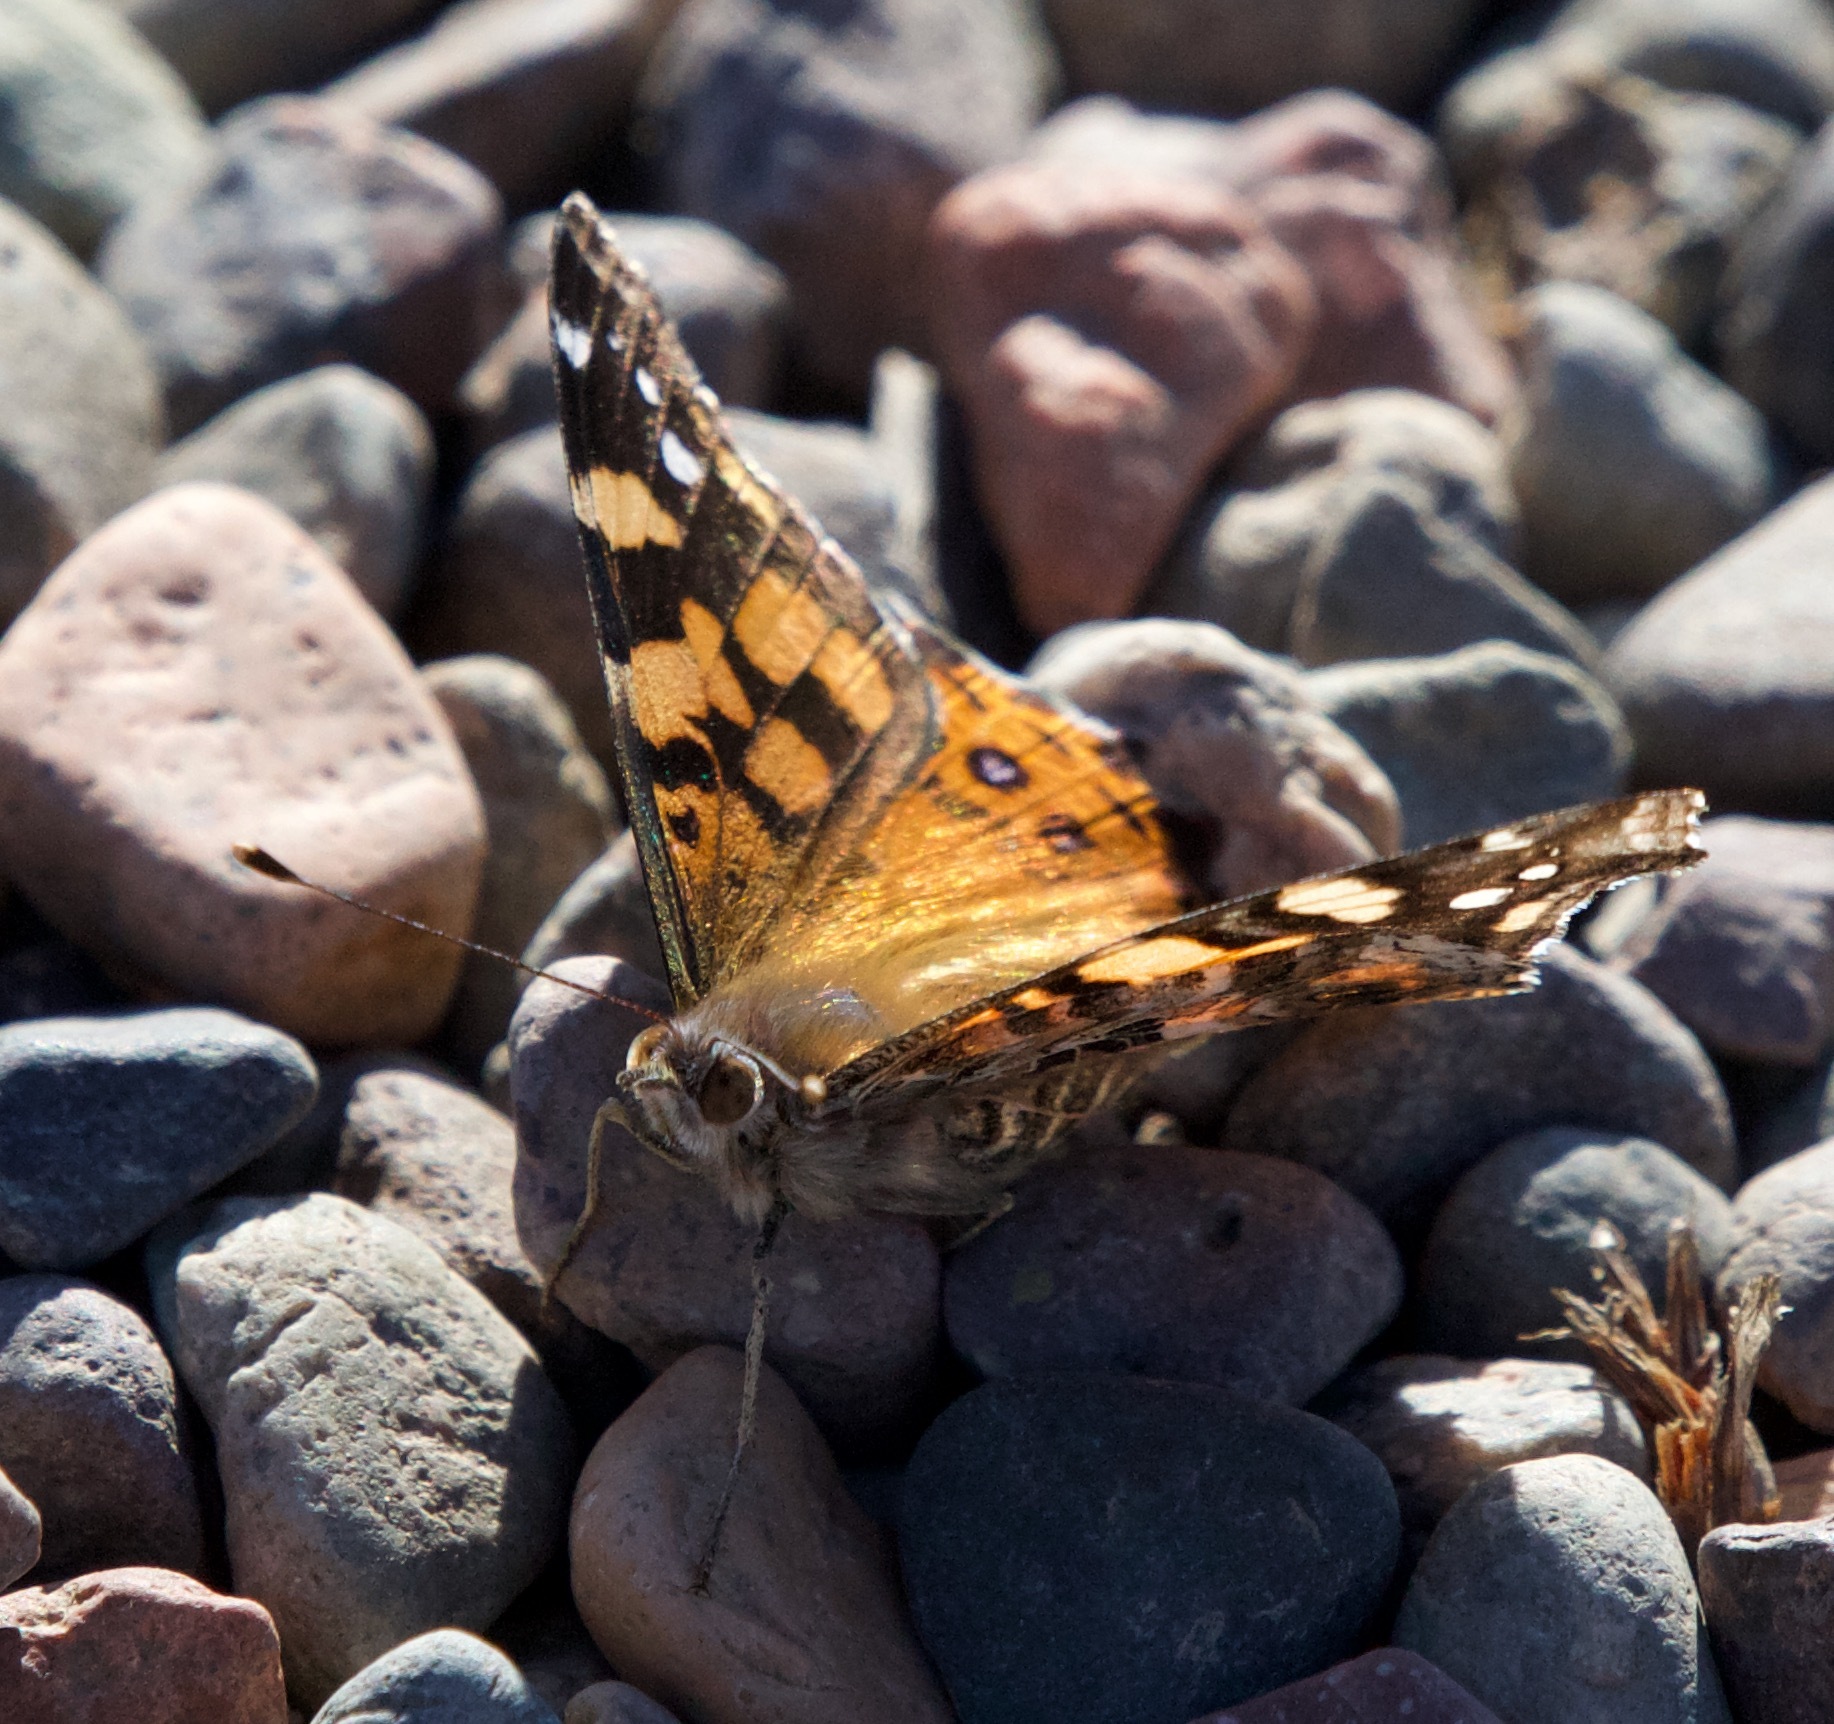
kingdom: Animalia
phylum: Arthropoda
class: Insecta
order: Lepidoptera
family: Nymphalidae
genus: Vanessa
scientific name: Vanessa carye
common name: Subtropical lady
